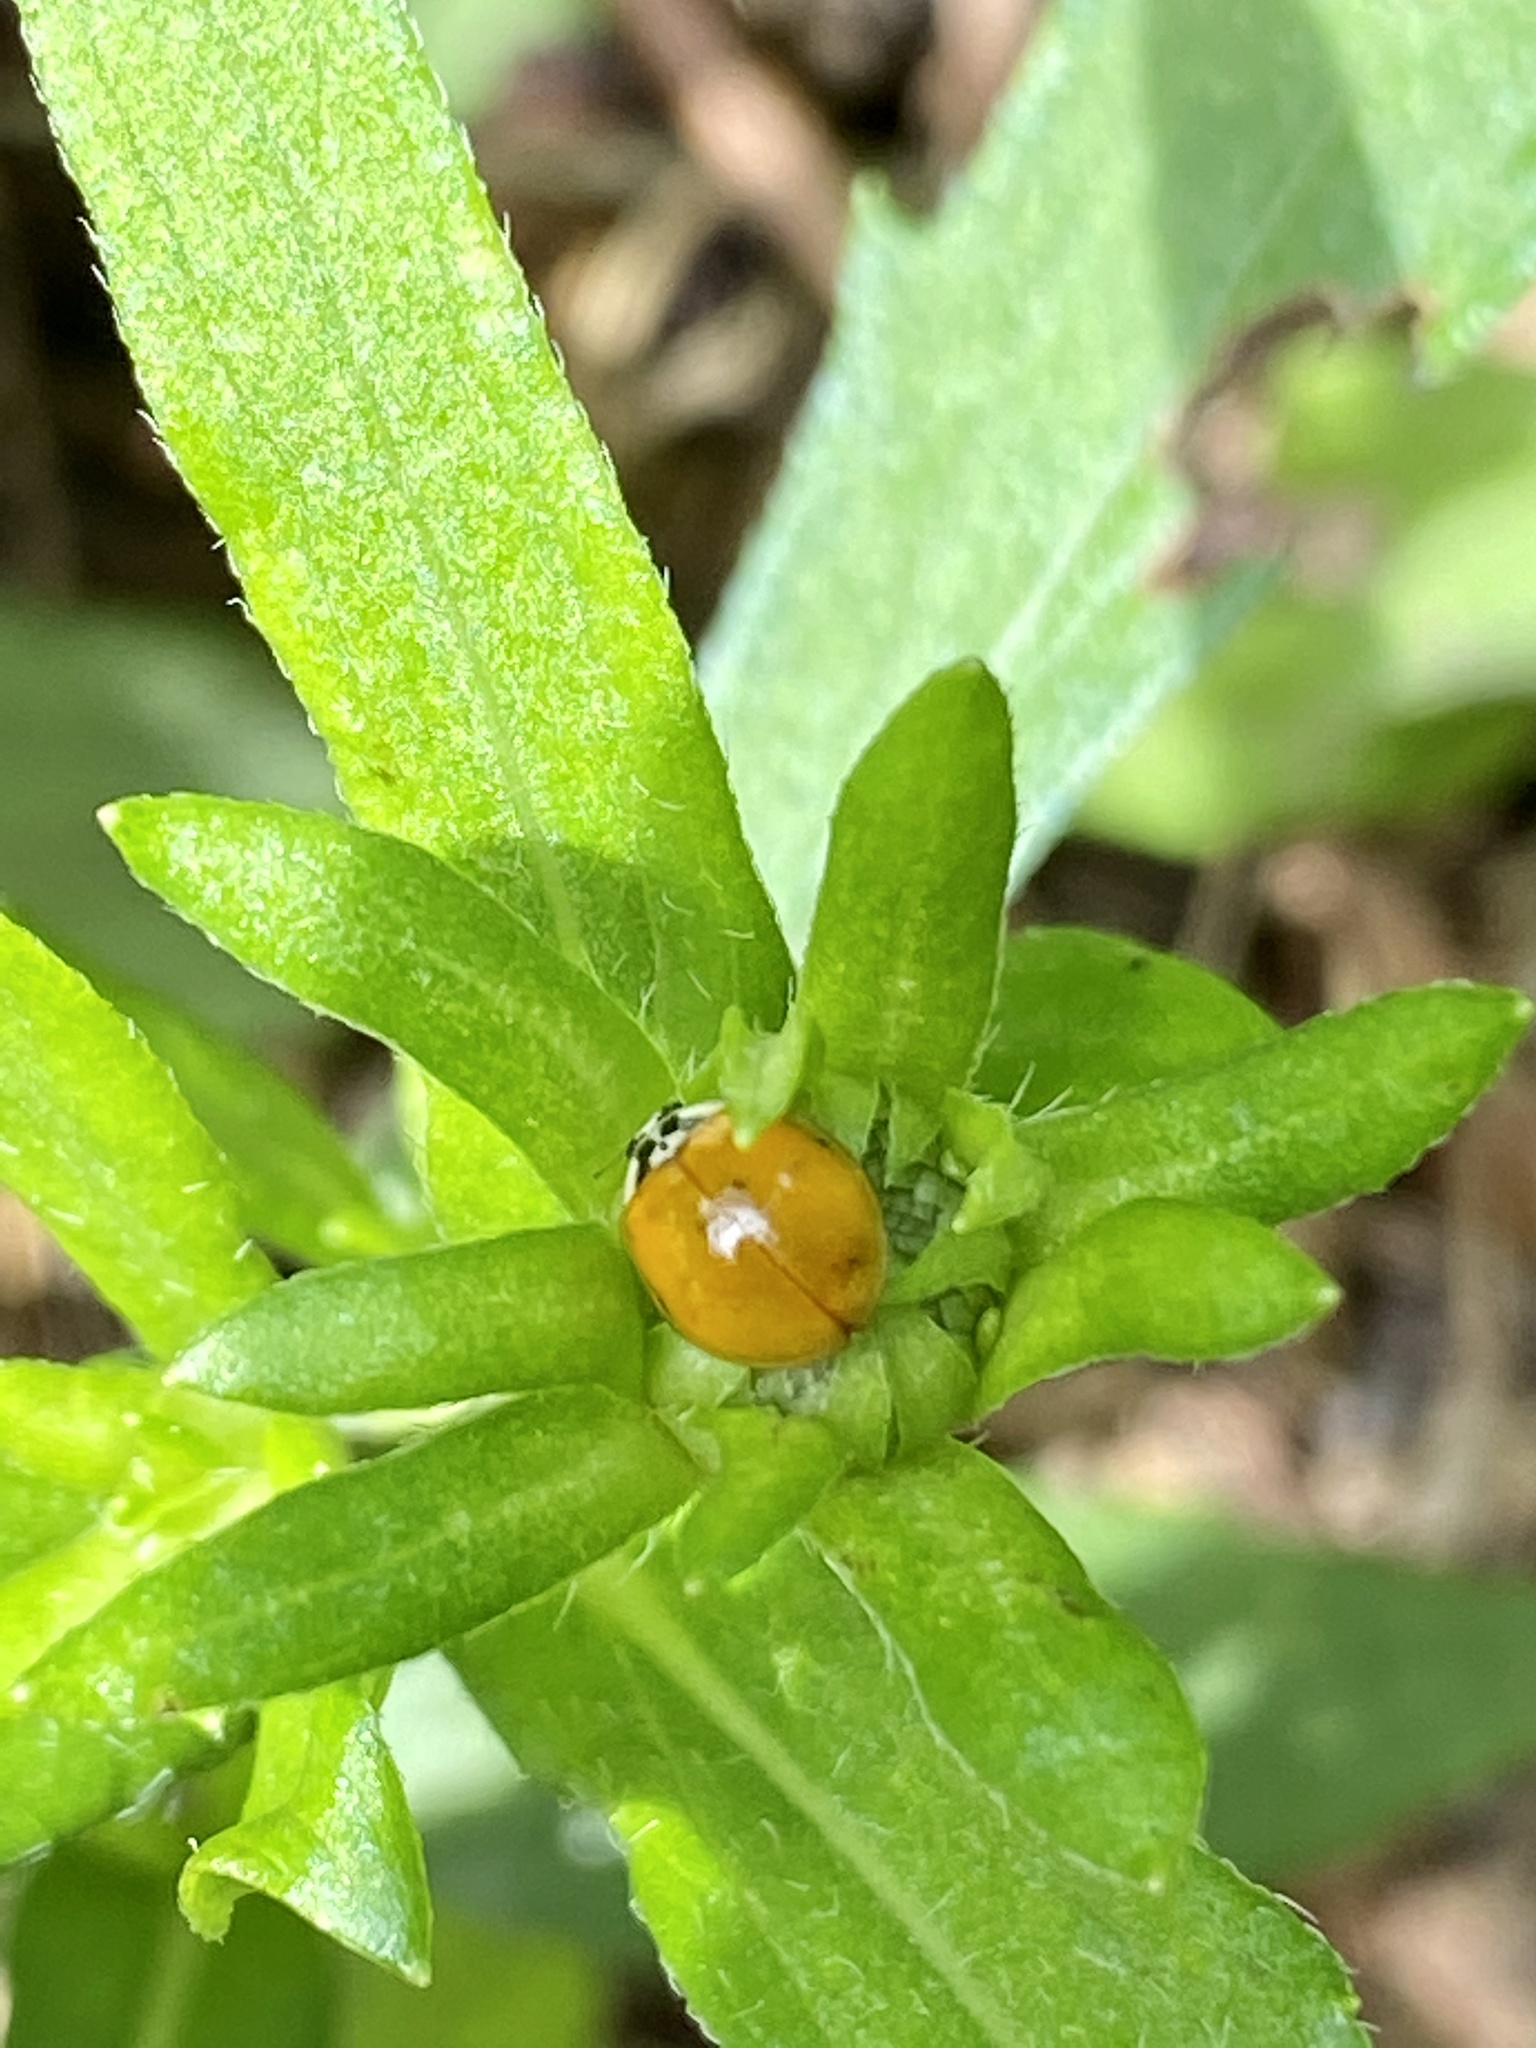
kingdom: Animalia
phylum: Arthropoda
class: Insecta
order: Coleoptera
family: Coccinellidae
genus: Harmonia
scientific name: Harmonia axyridis
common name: Harlequin ladybird
